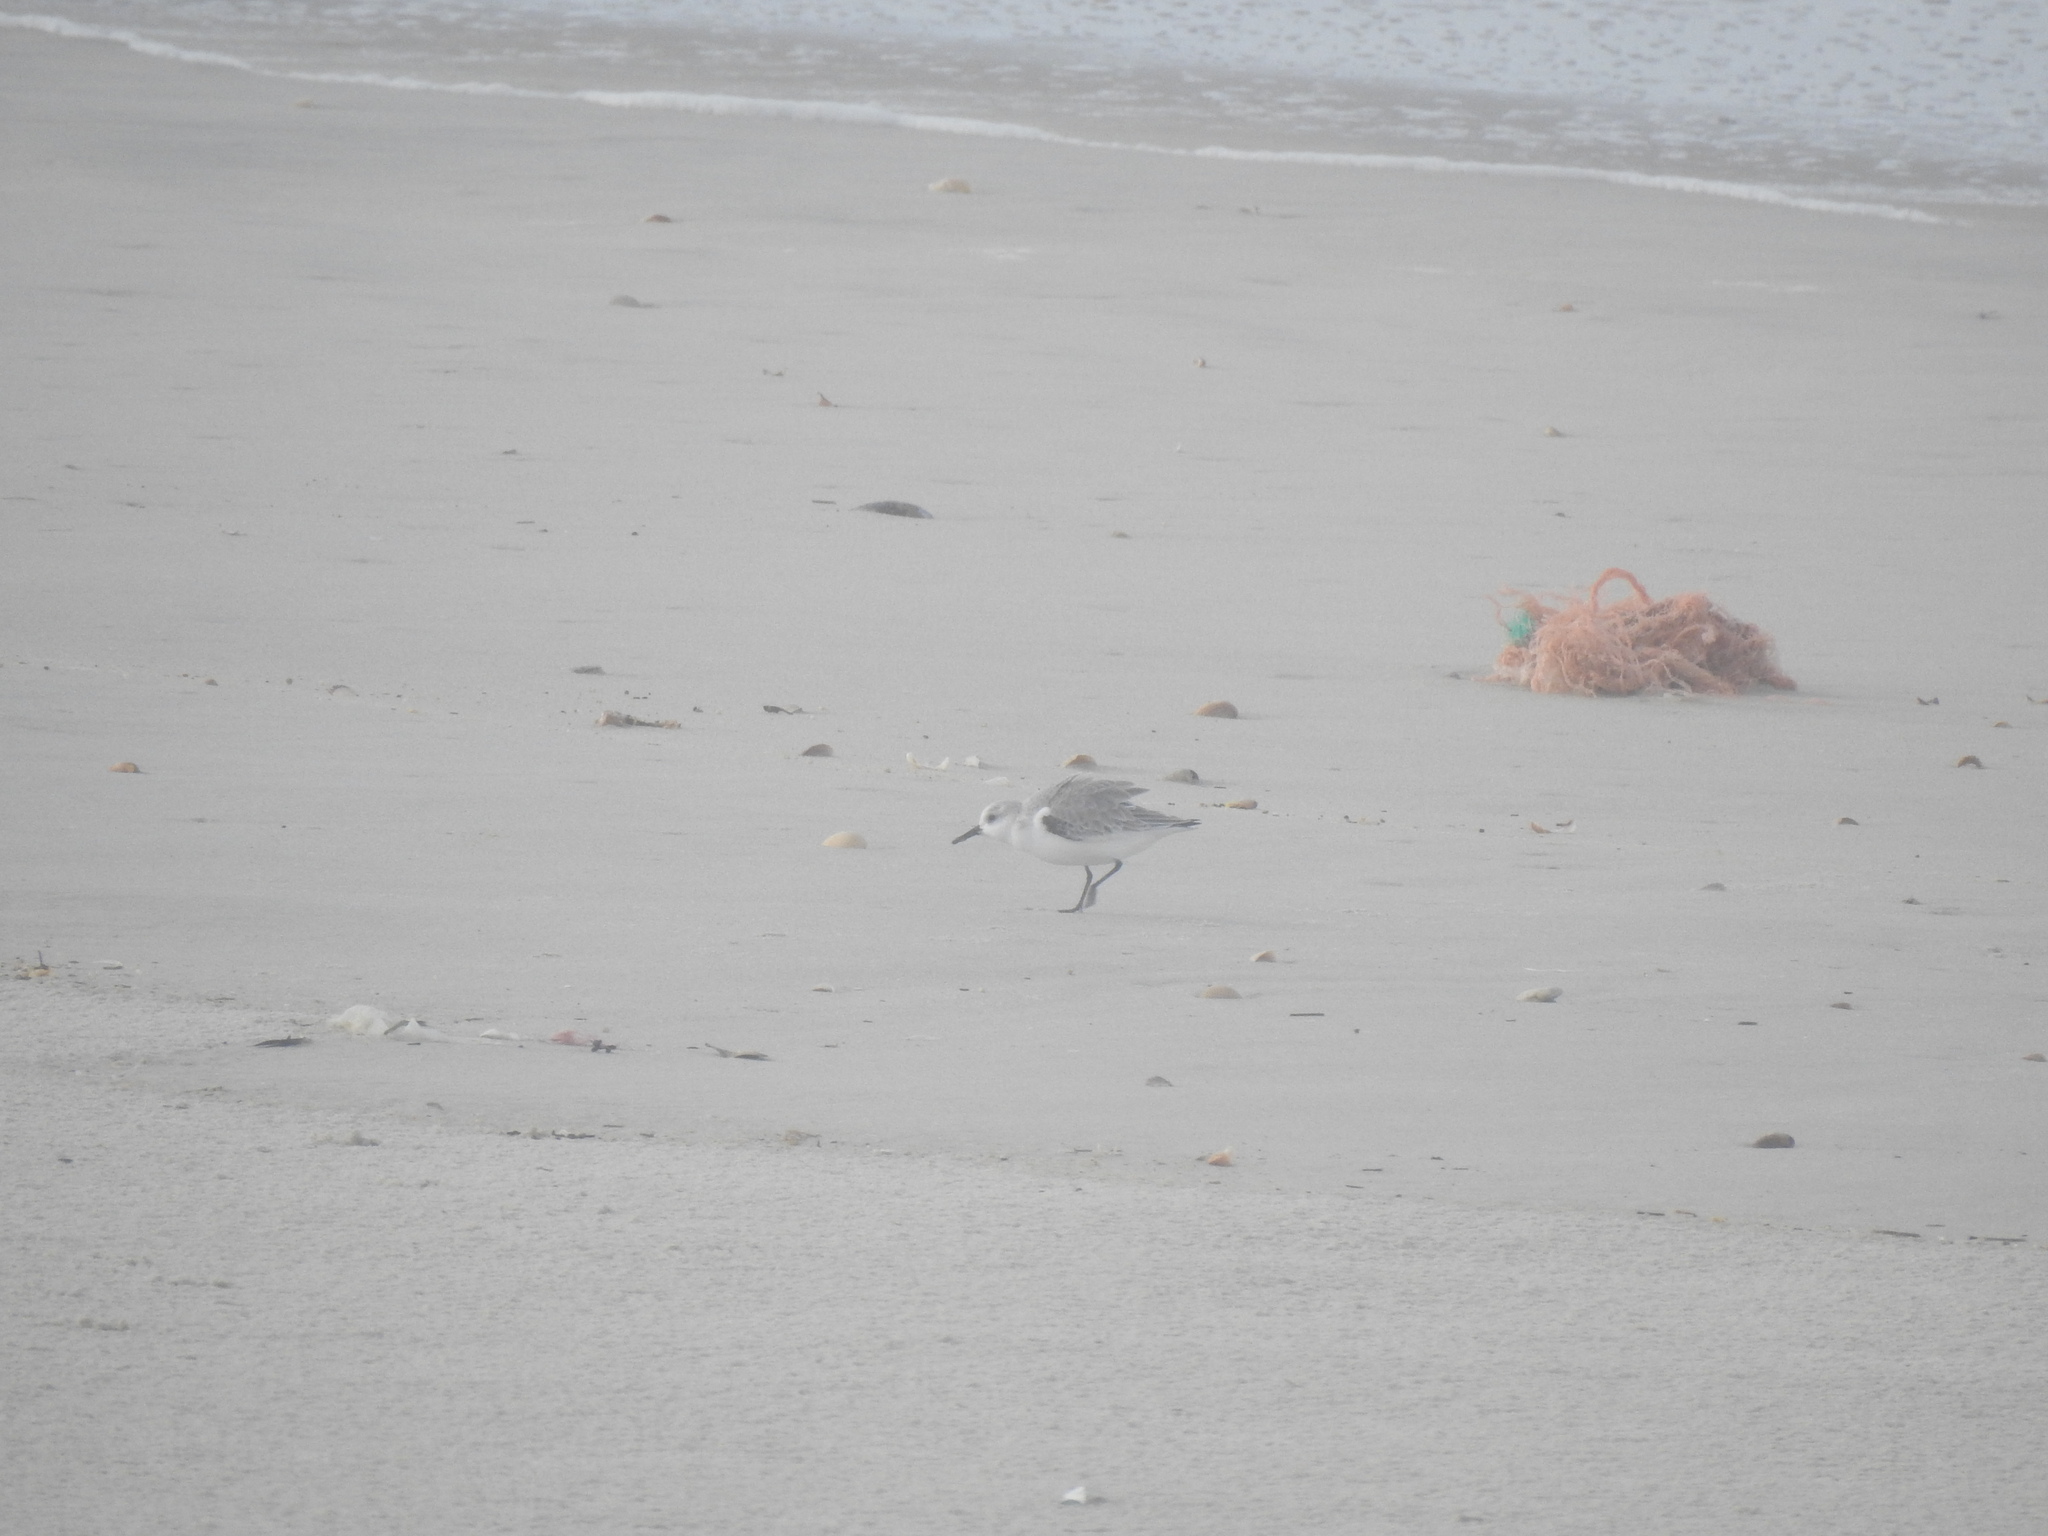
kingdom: Animalia
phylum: Chordata
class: Aves
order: Charadriiformes
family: Scolopacidae
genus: Calidris
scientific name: Calidris alba
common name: Sanderling
